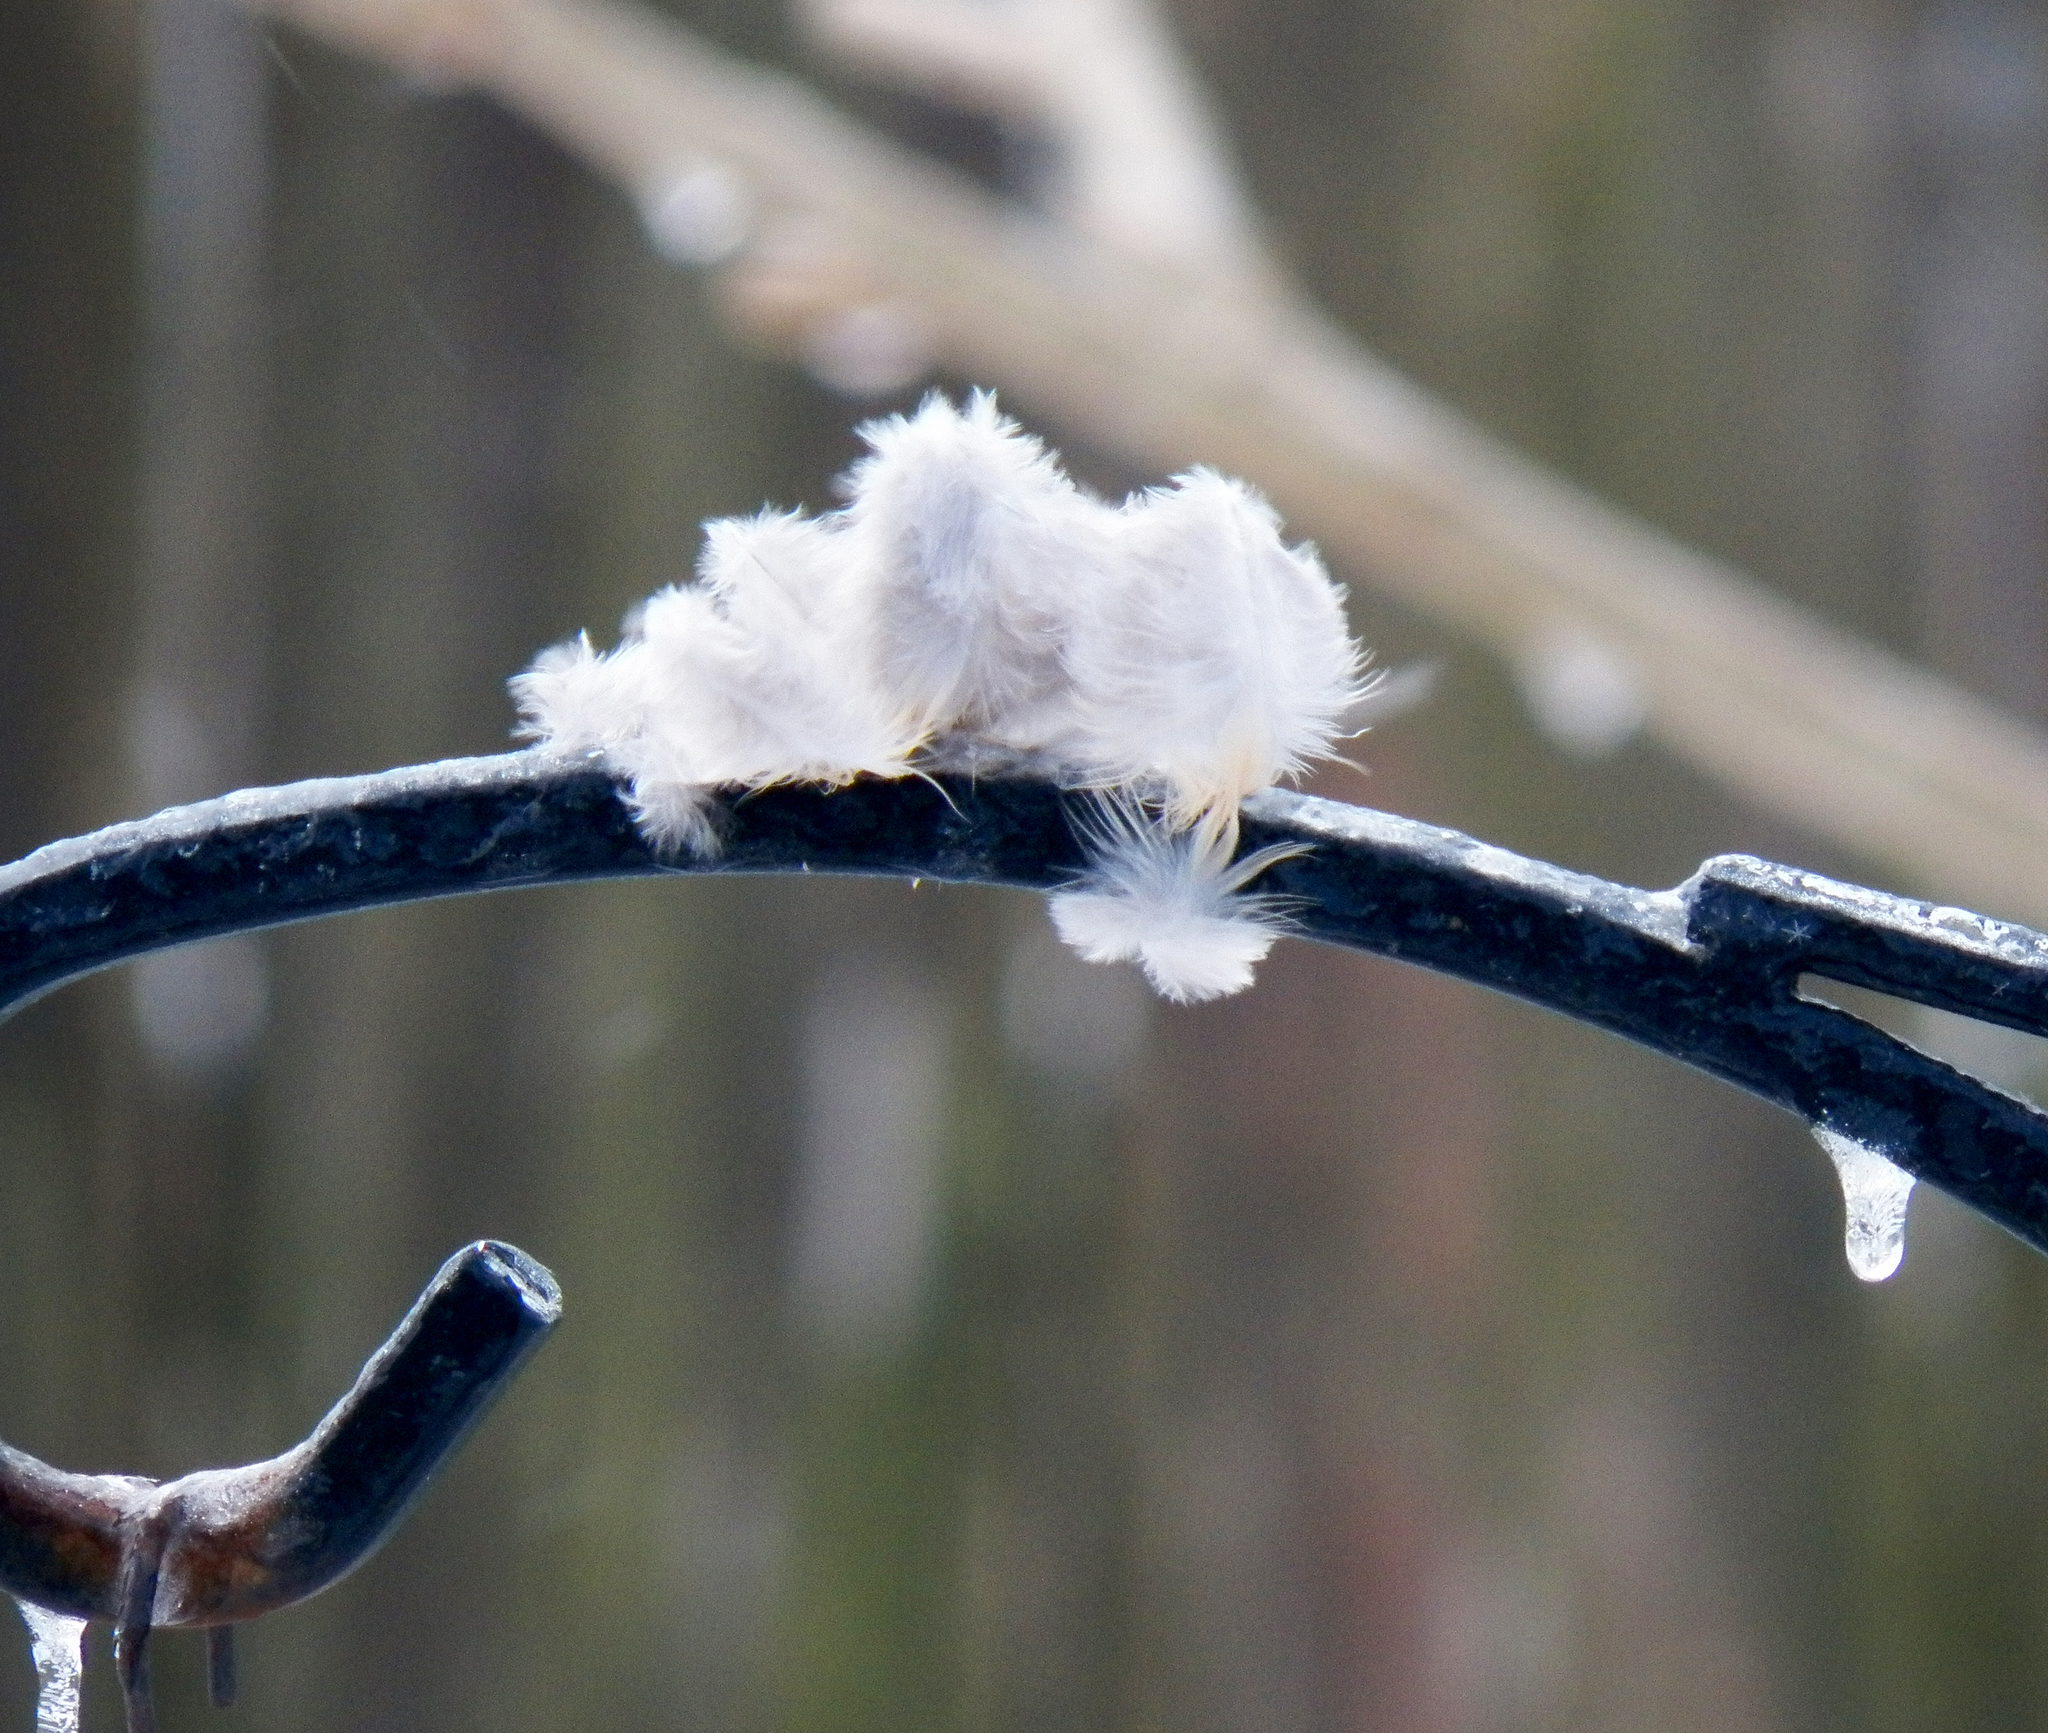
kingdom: Animalia
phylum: Chordata
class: Aves
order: Columbiformes
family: Columbidae
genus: Zenaida
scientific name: Zenaida macroura
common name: Mourning dove
